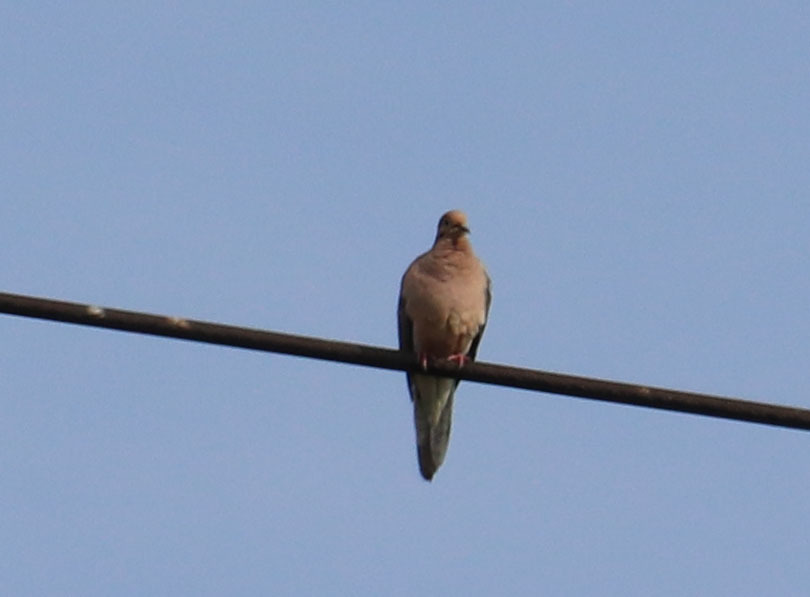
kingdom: Animalia
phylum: Chordata
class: Aves
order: Columbiformes
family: Columbidae
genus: Zenaida
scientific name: Zenaida macroura
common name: Mourning dove
